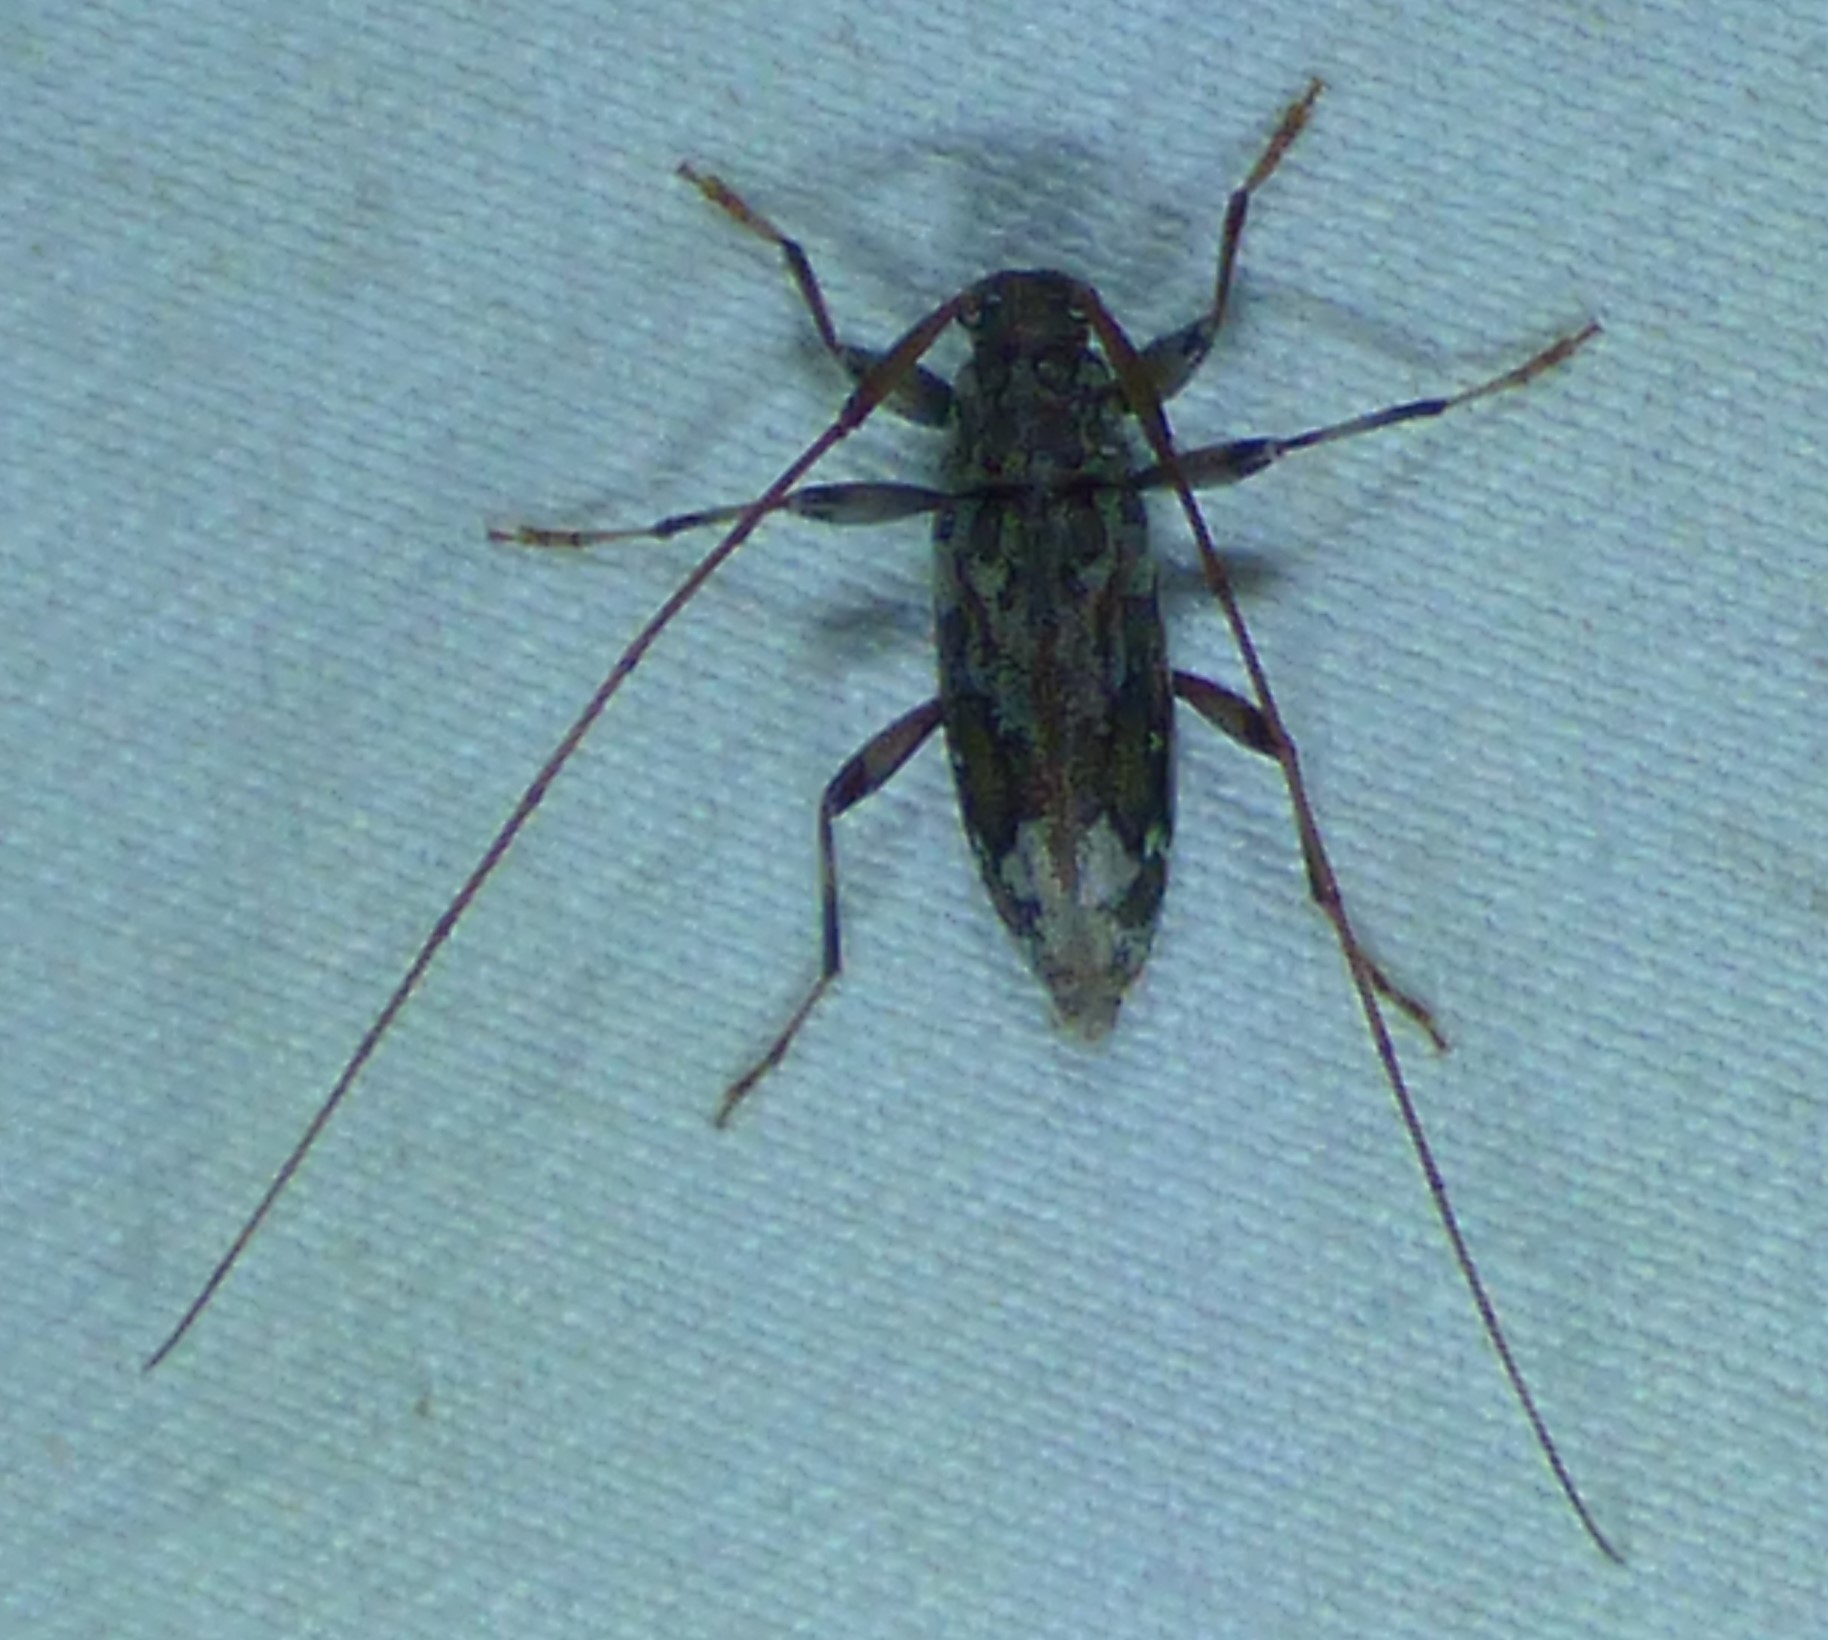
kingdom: Animalia
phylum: Arthropoda
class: Insecta
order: Coleoptera
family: Cerambycidae
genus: Lepturges
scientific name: Lepturges confluens
